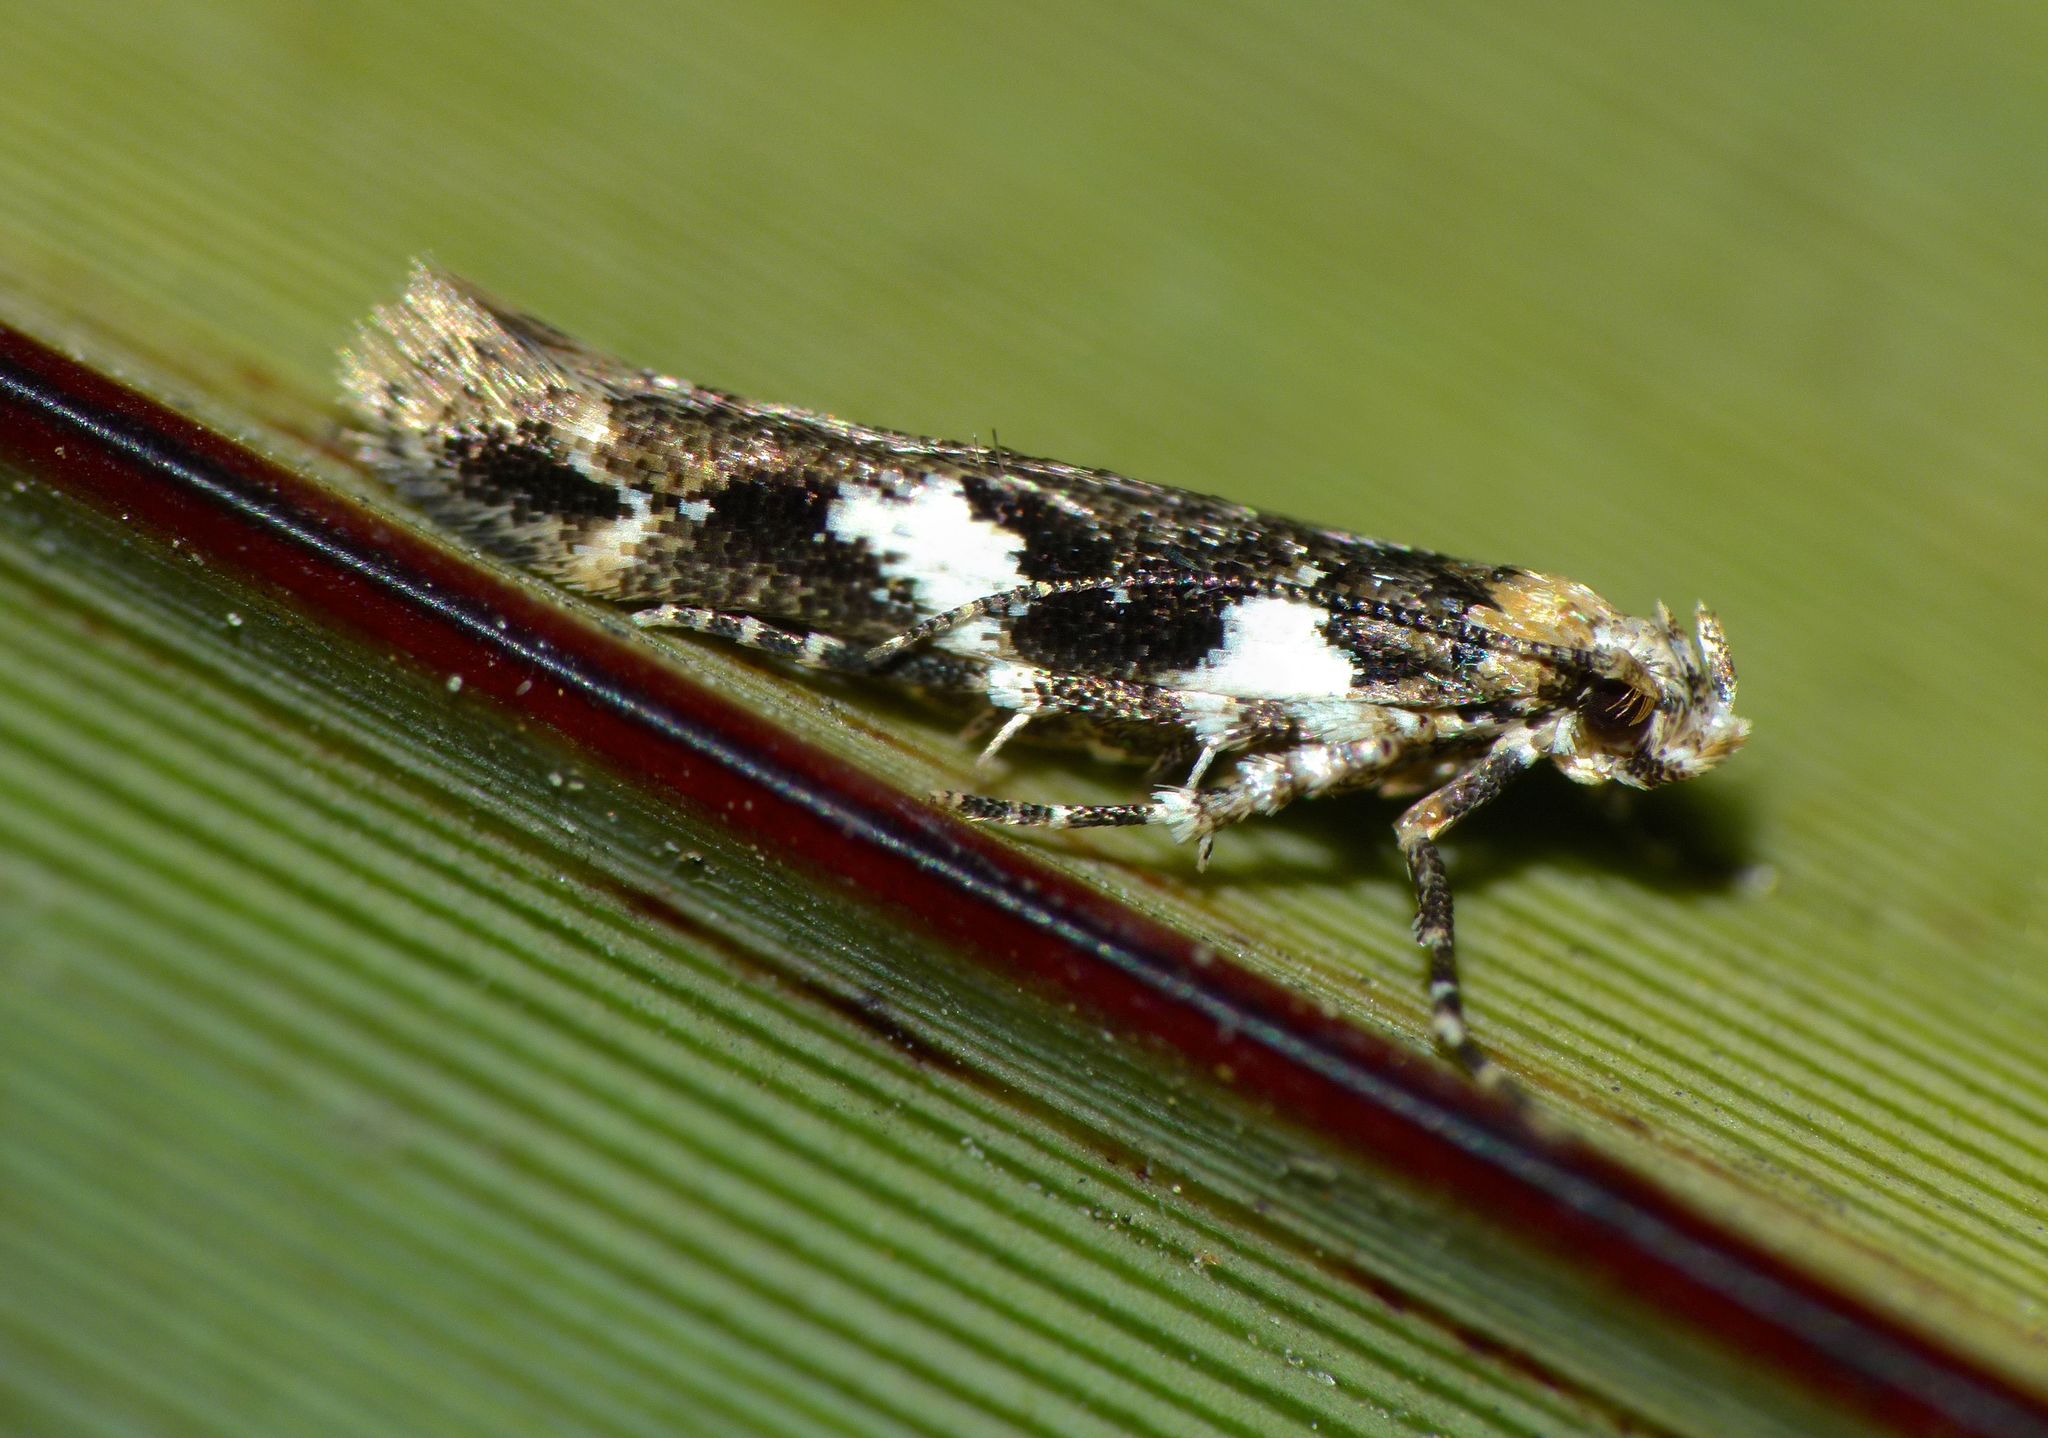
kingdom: Animalia
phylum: Arthropoda
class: Insecta
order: Lepidoptera
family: Cosmopterigidae
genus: Pyroderces
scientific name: Pyroderces deamatella
